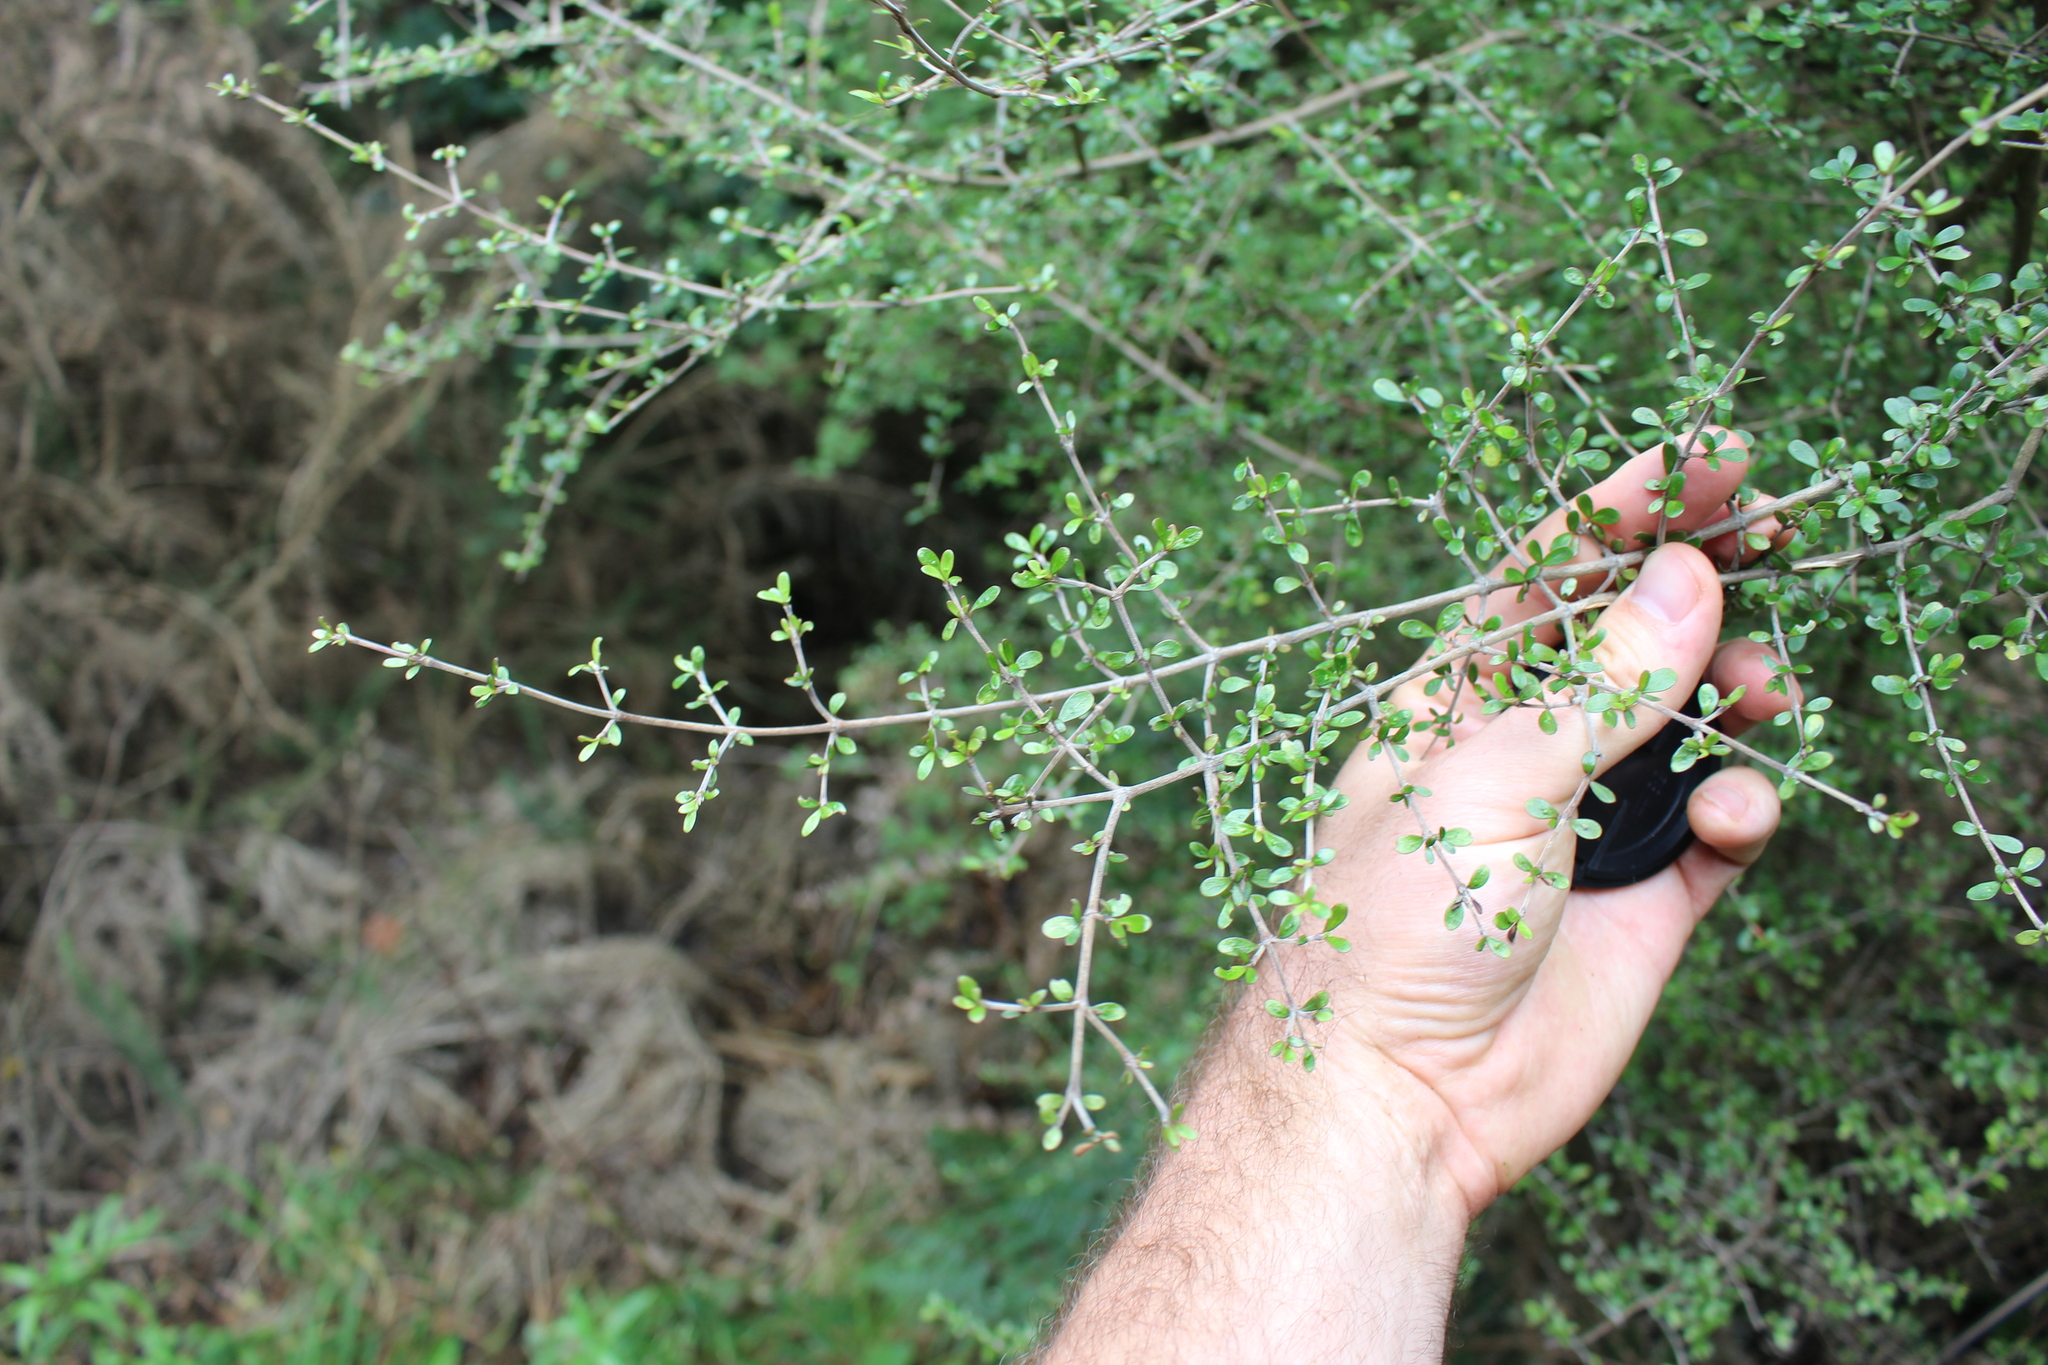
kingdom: Plantae
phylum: Tracheophyta
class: Magnoliopsida
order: Gentianales
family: Rubiaceae
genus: Coprosma
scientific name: Coprosma dumosa
